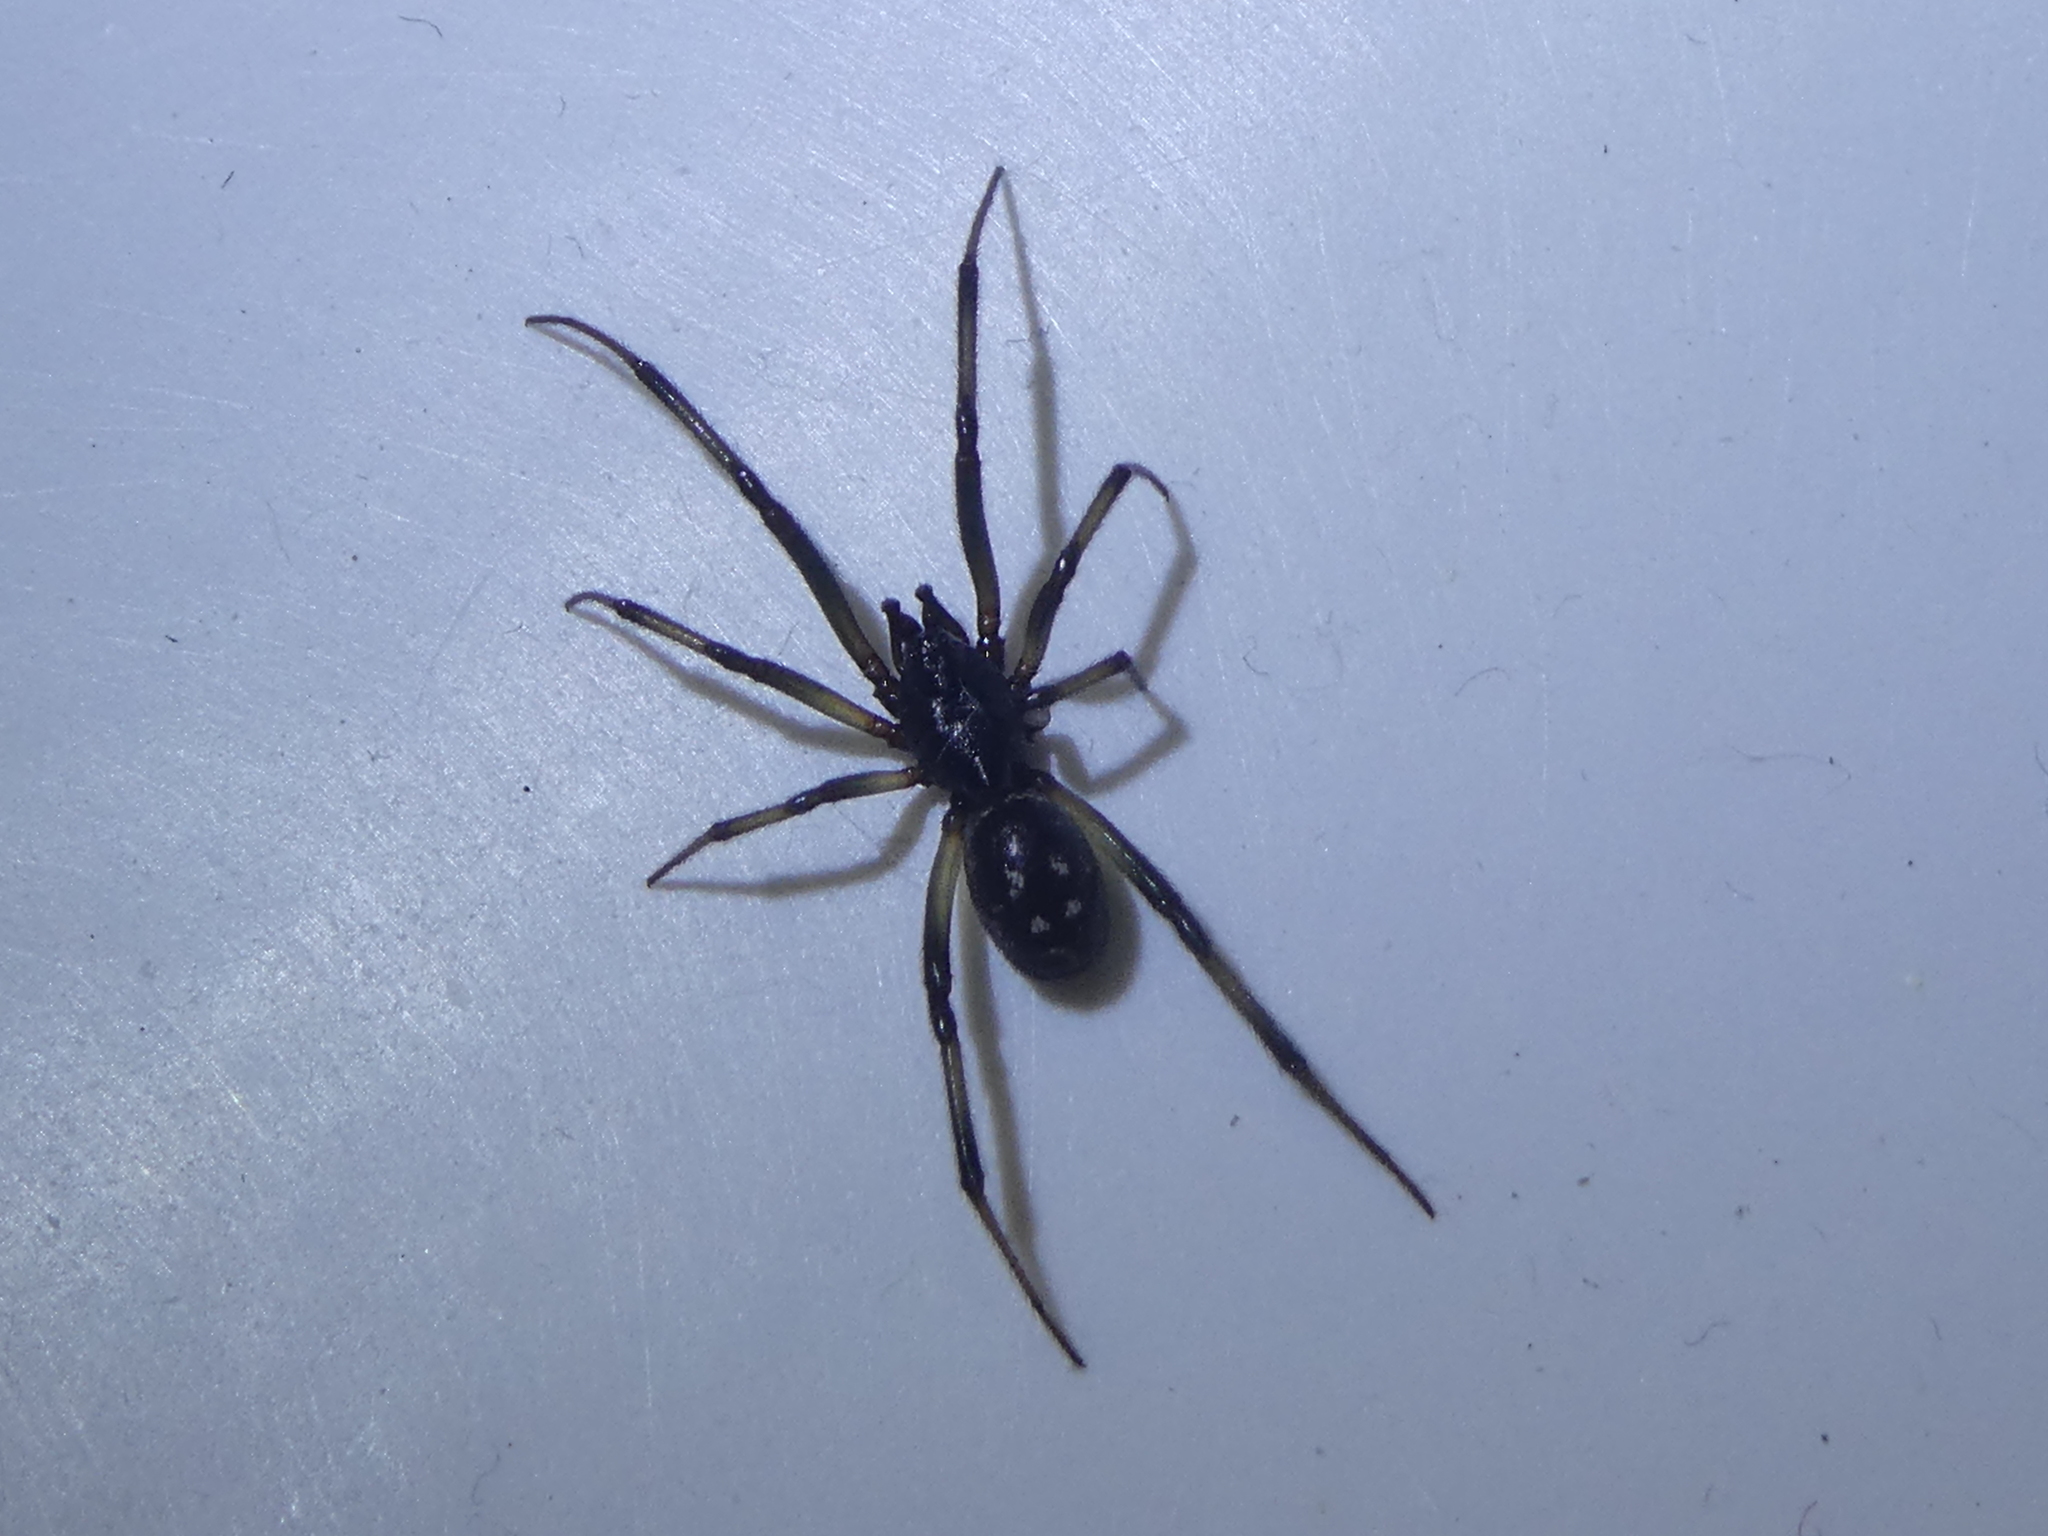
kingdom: Animalia
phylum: Arthropoda
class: Arachnida
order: Araneae
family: Theridiidae
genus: Steatoda
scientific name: Steatoda capensis
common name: Cobweb weaver
